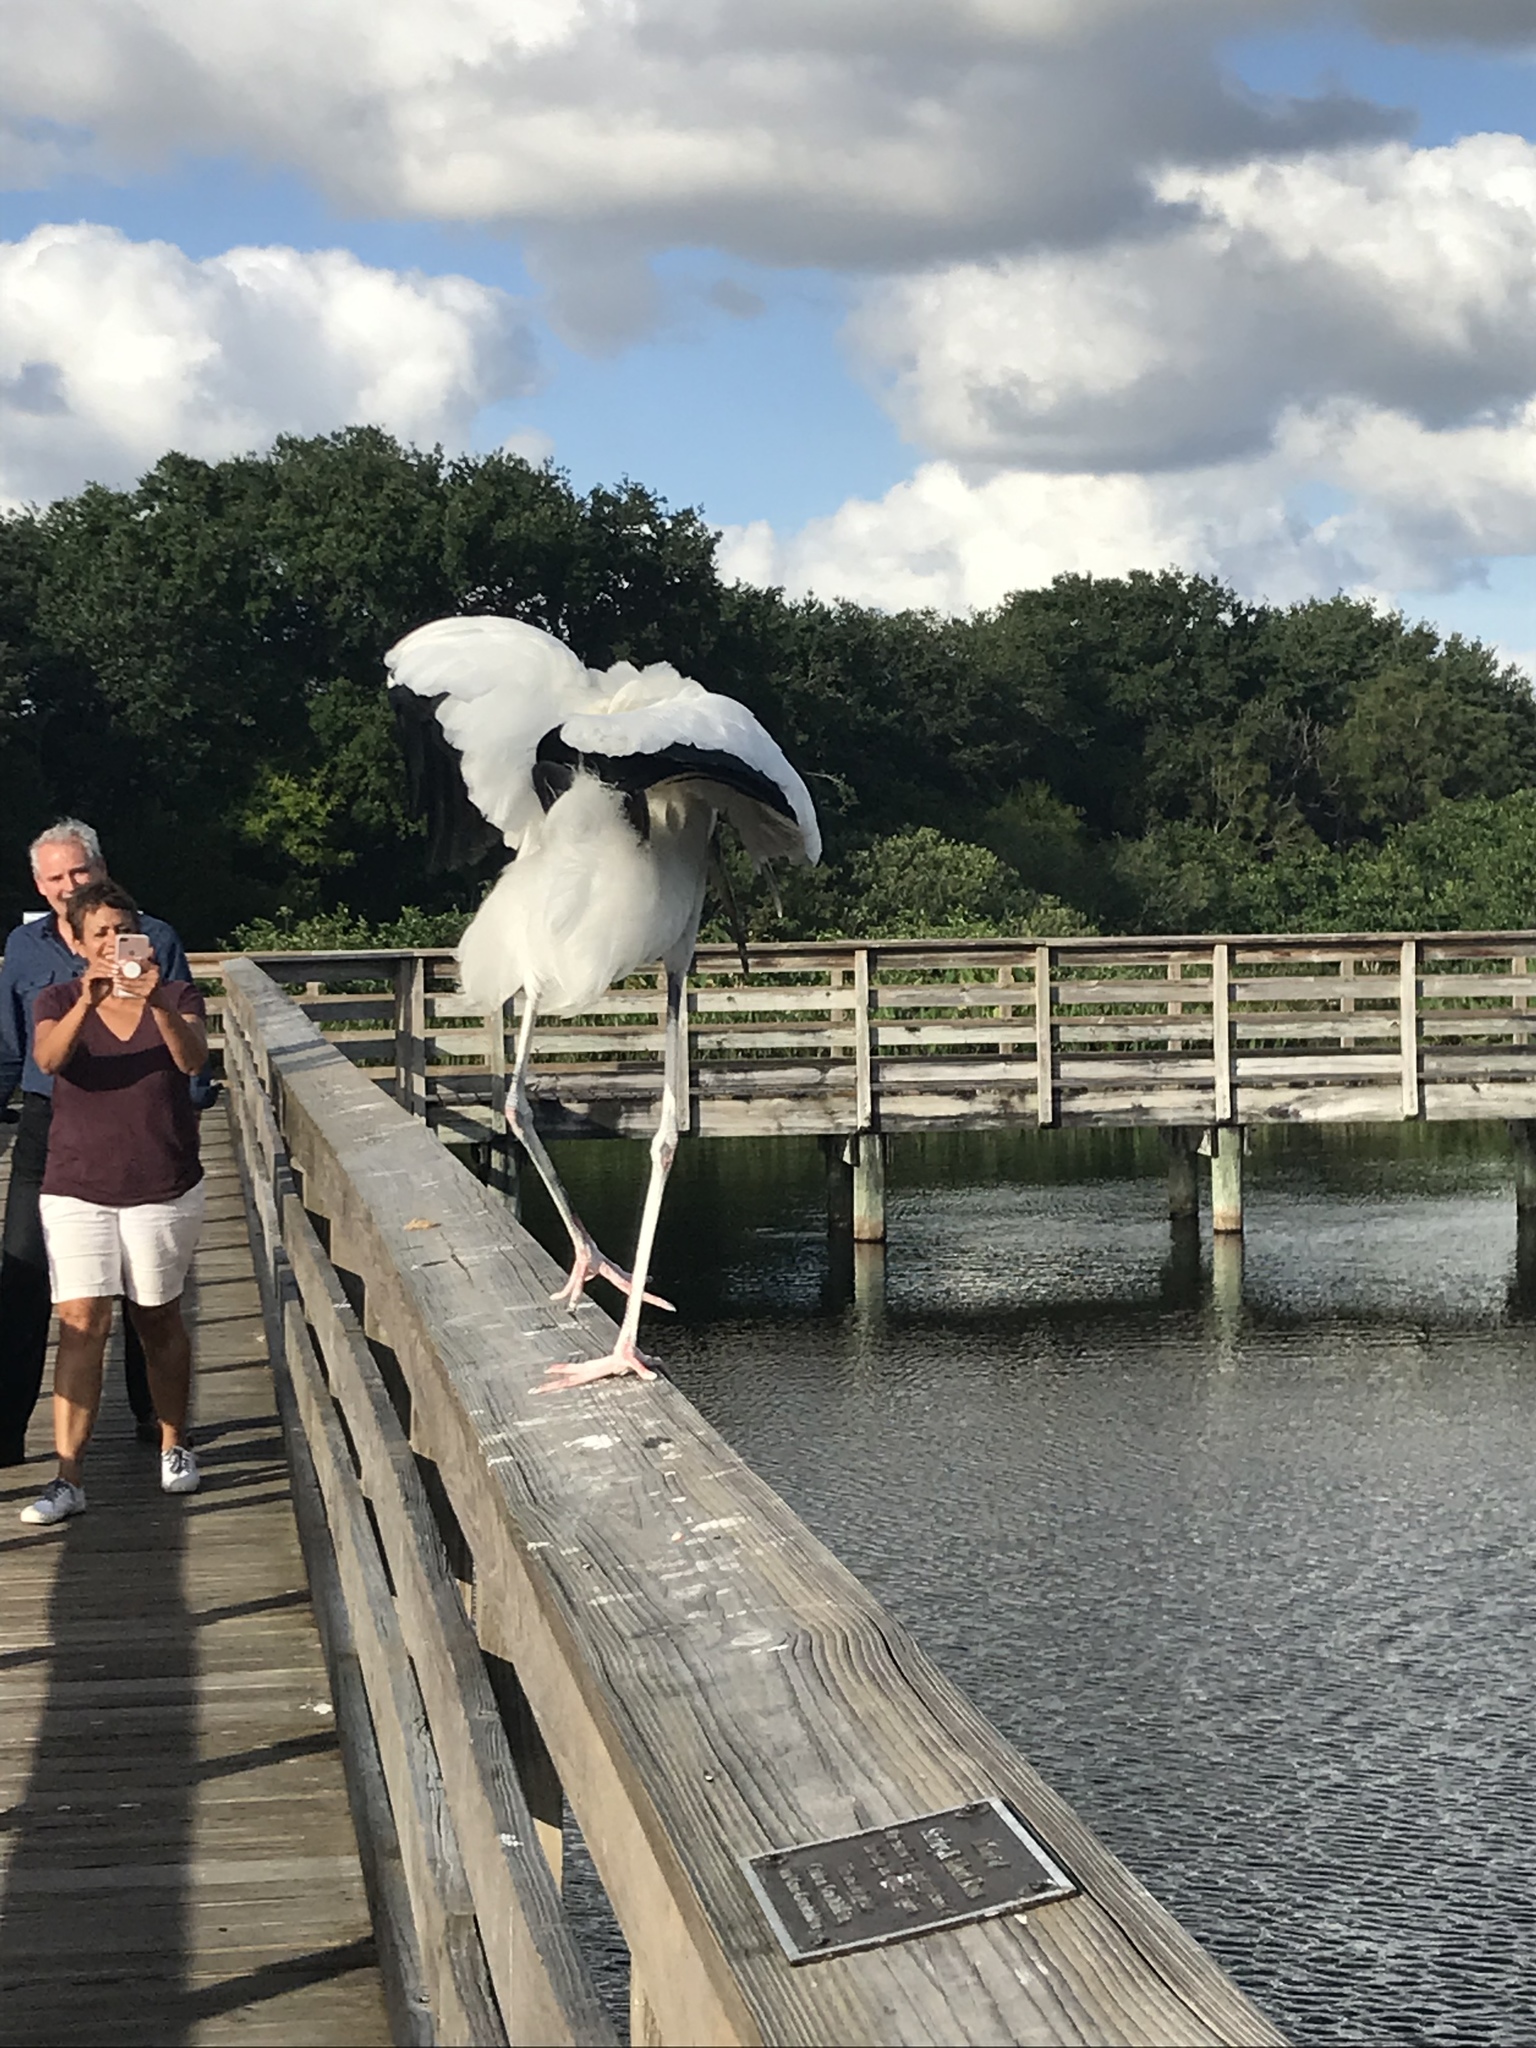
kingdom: Animalia
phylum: Chordata
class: Aves
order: Ciconiiformes
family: Ciconiidae
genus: Mycteria
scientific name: Mycteria americana
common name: Wood stork
